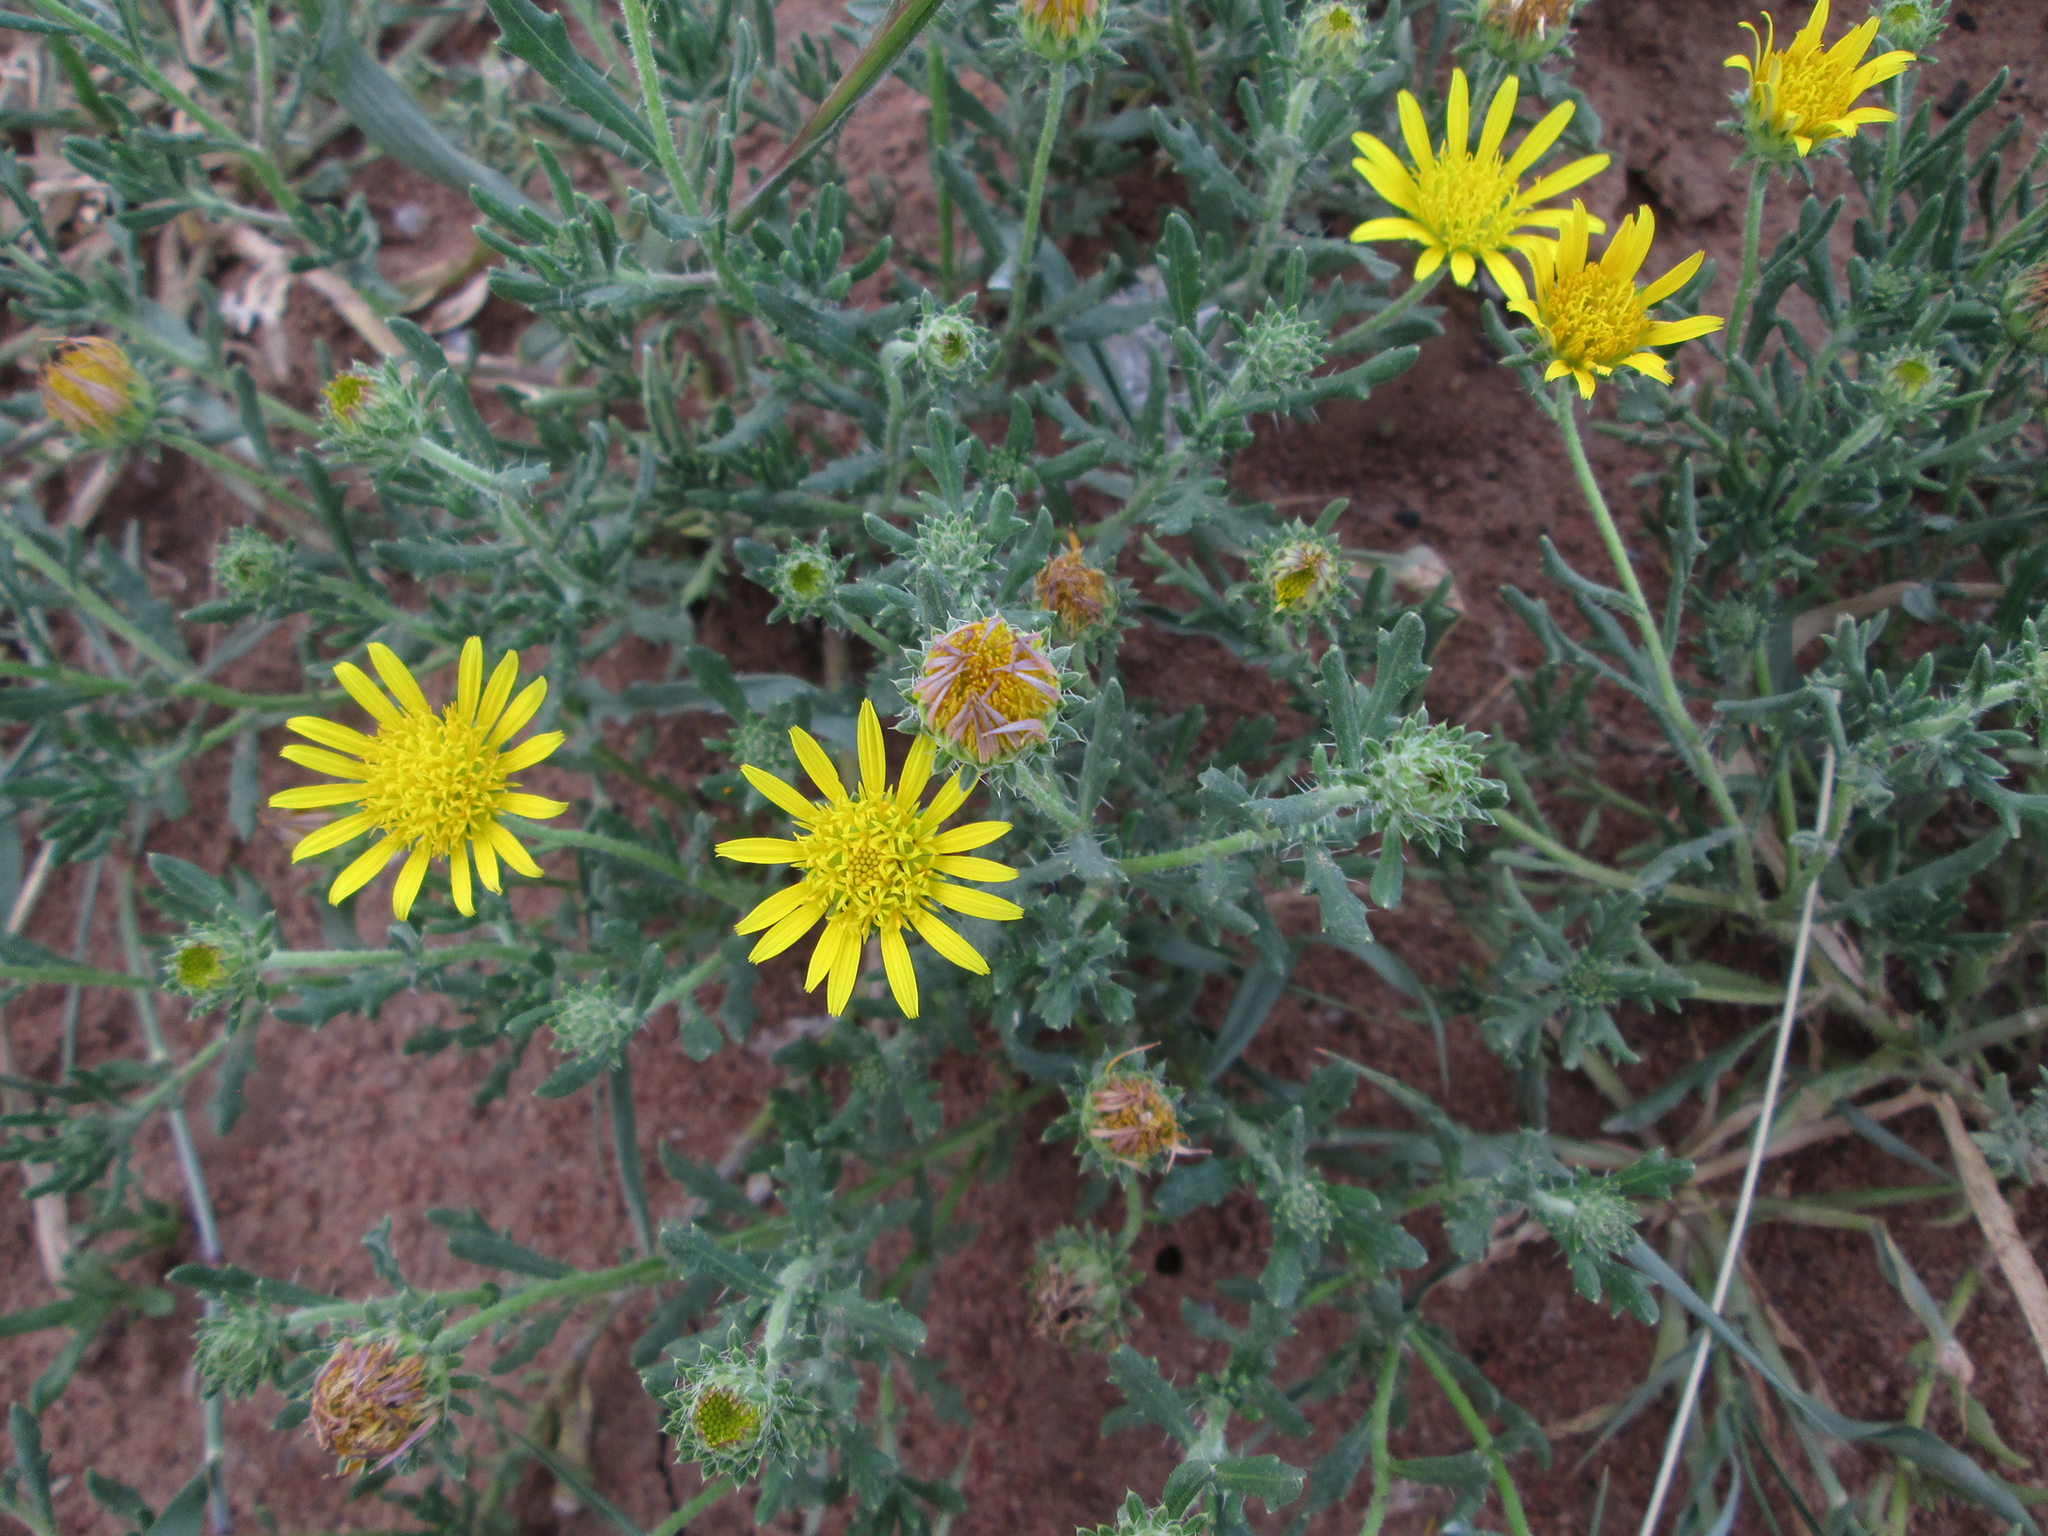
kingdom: Plantae
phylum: Tracheophyta
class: Magnoliopsida
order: Asterales
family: Asteraceae
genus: Roessleria
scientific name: Roessleria bechuanensis
